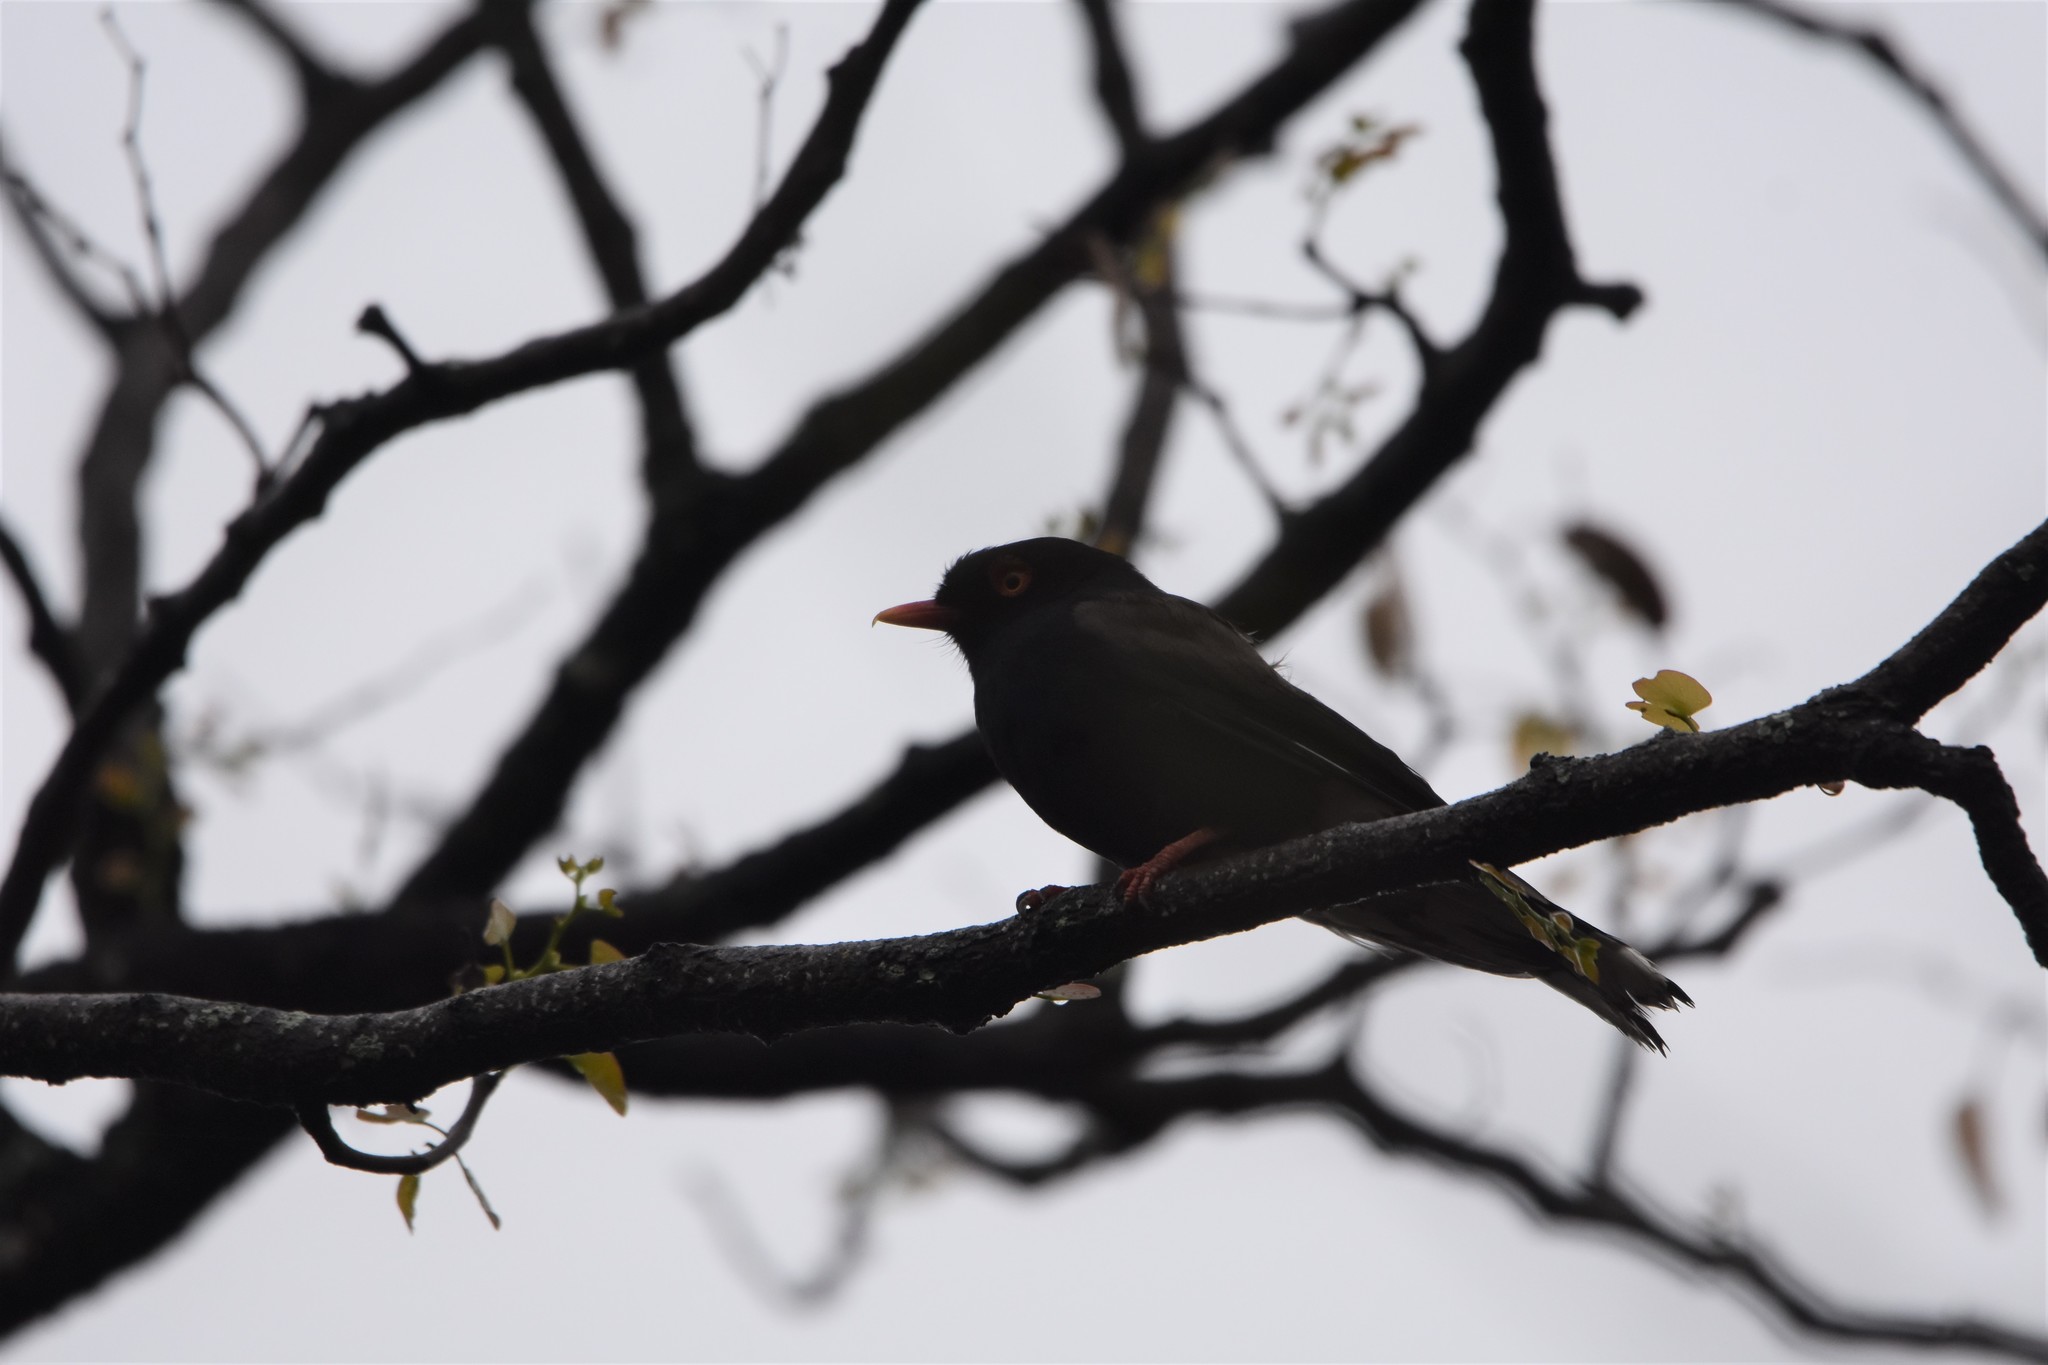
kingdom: Animalia
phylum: Chordata
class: Aves
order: Passeriformes
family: Prionopidae
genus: Prionops
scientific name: Prionops retzii
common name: Retz's helmetshrike
